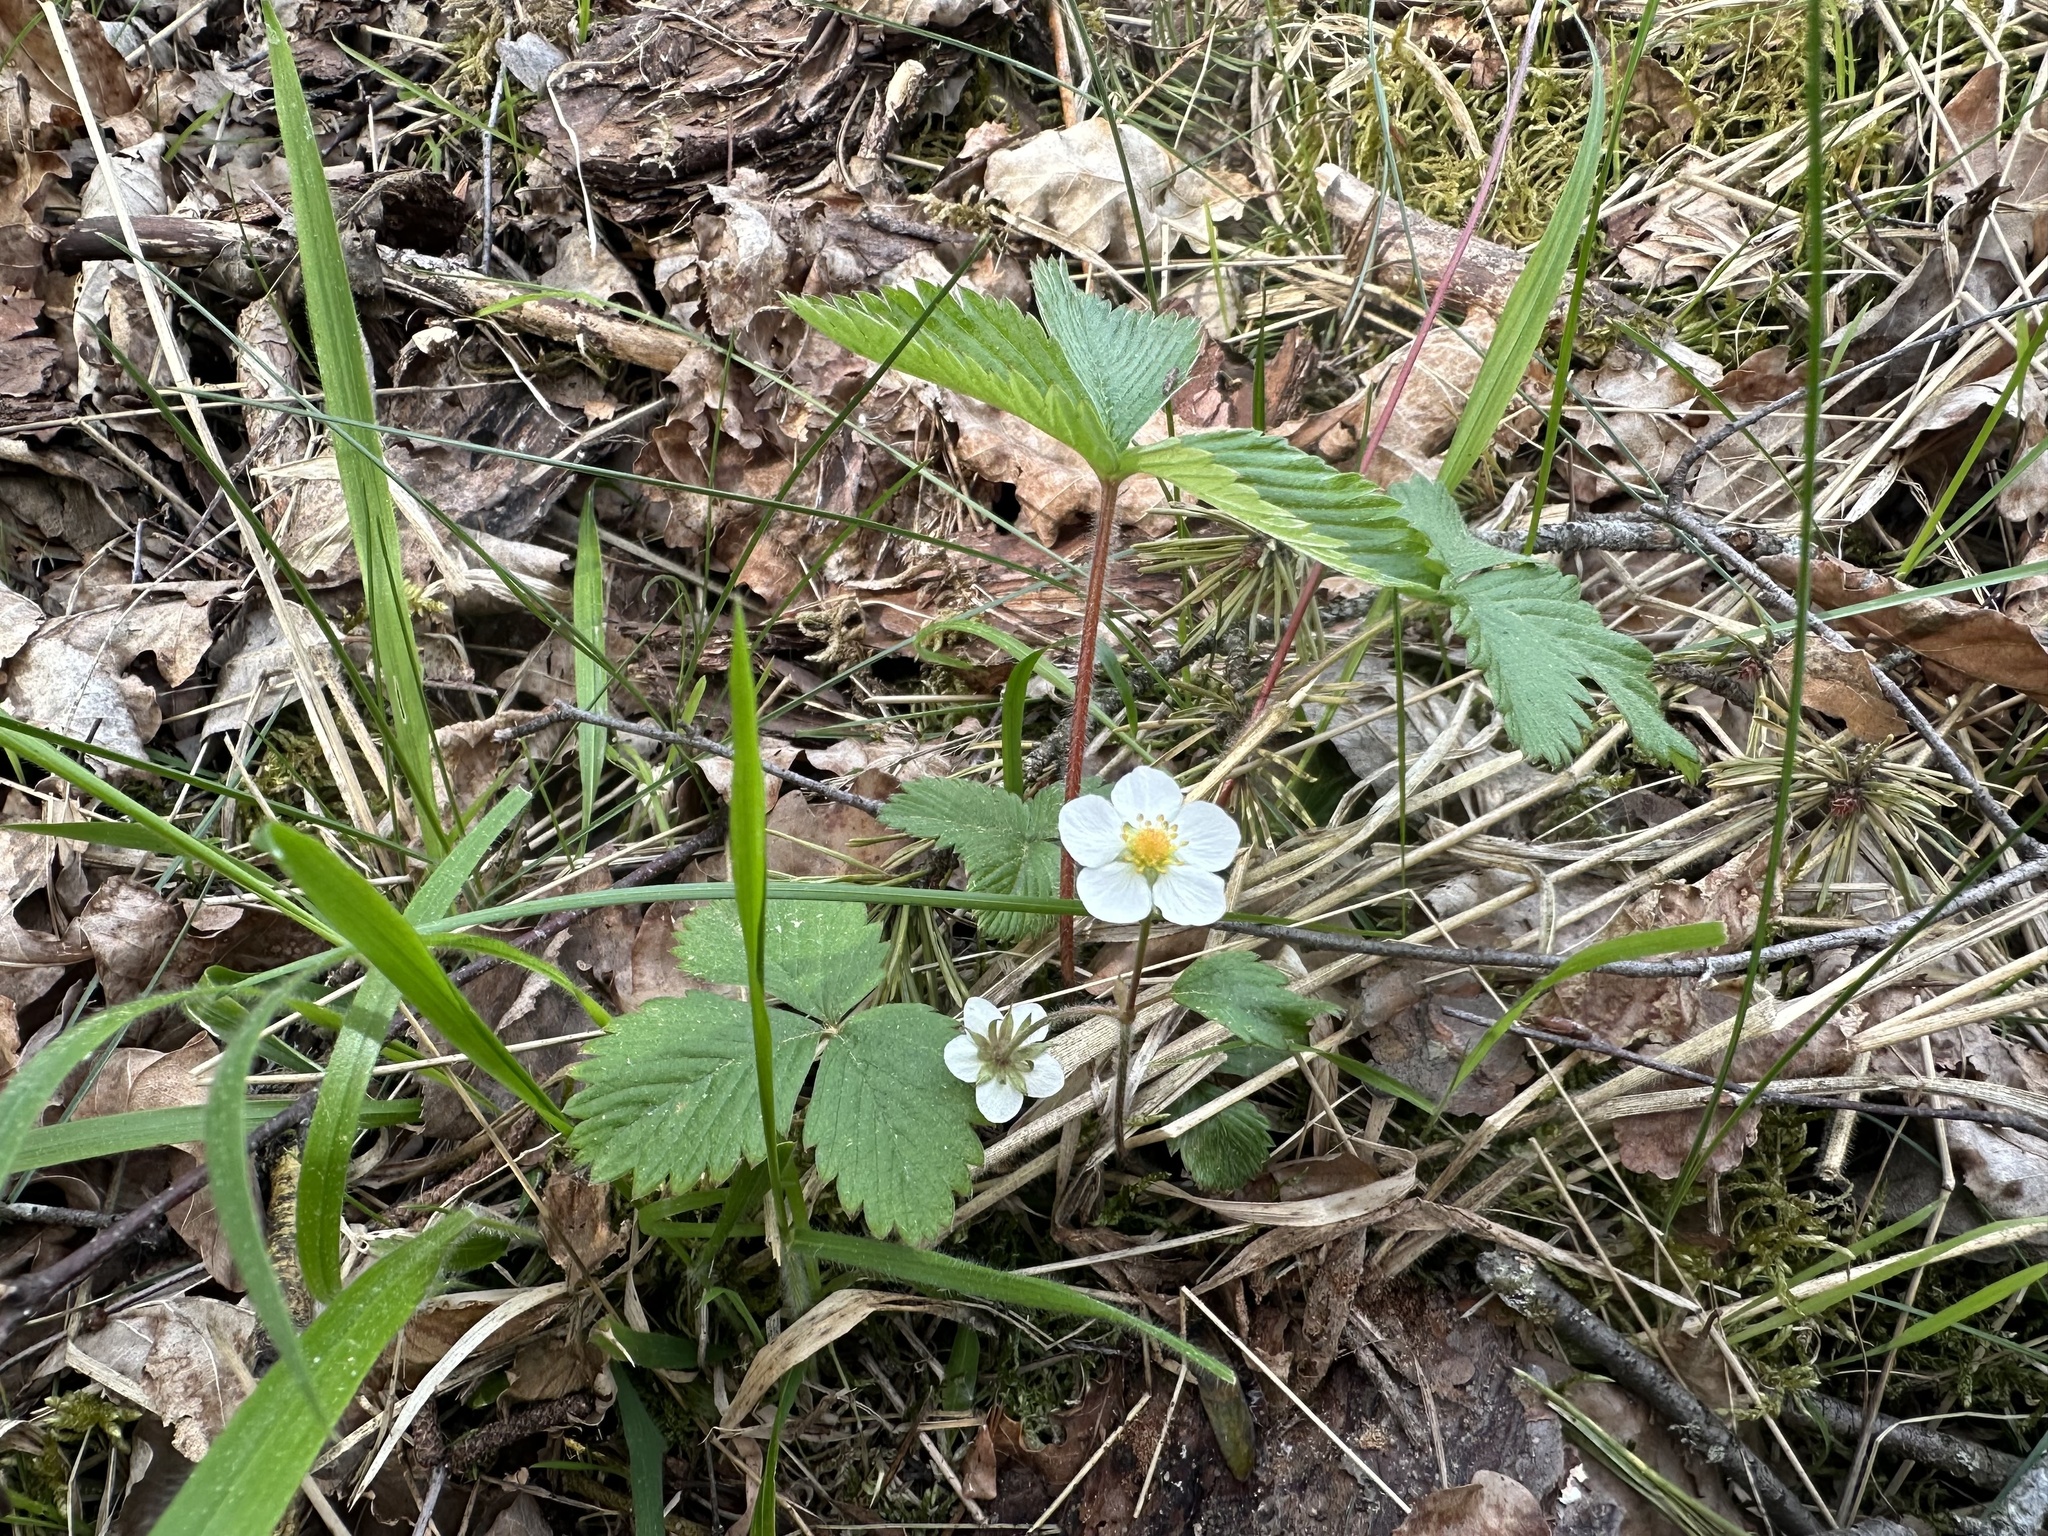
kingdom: Plantae
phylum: Tracheophyta
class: Magnoliopsida
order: Rosales
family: Rosaceae
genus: Fragaria
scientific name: Fragaria vesca
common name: Wild strawberry
